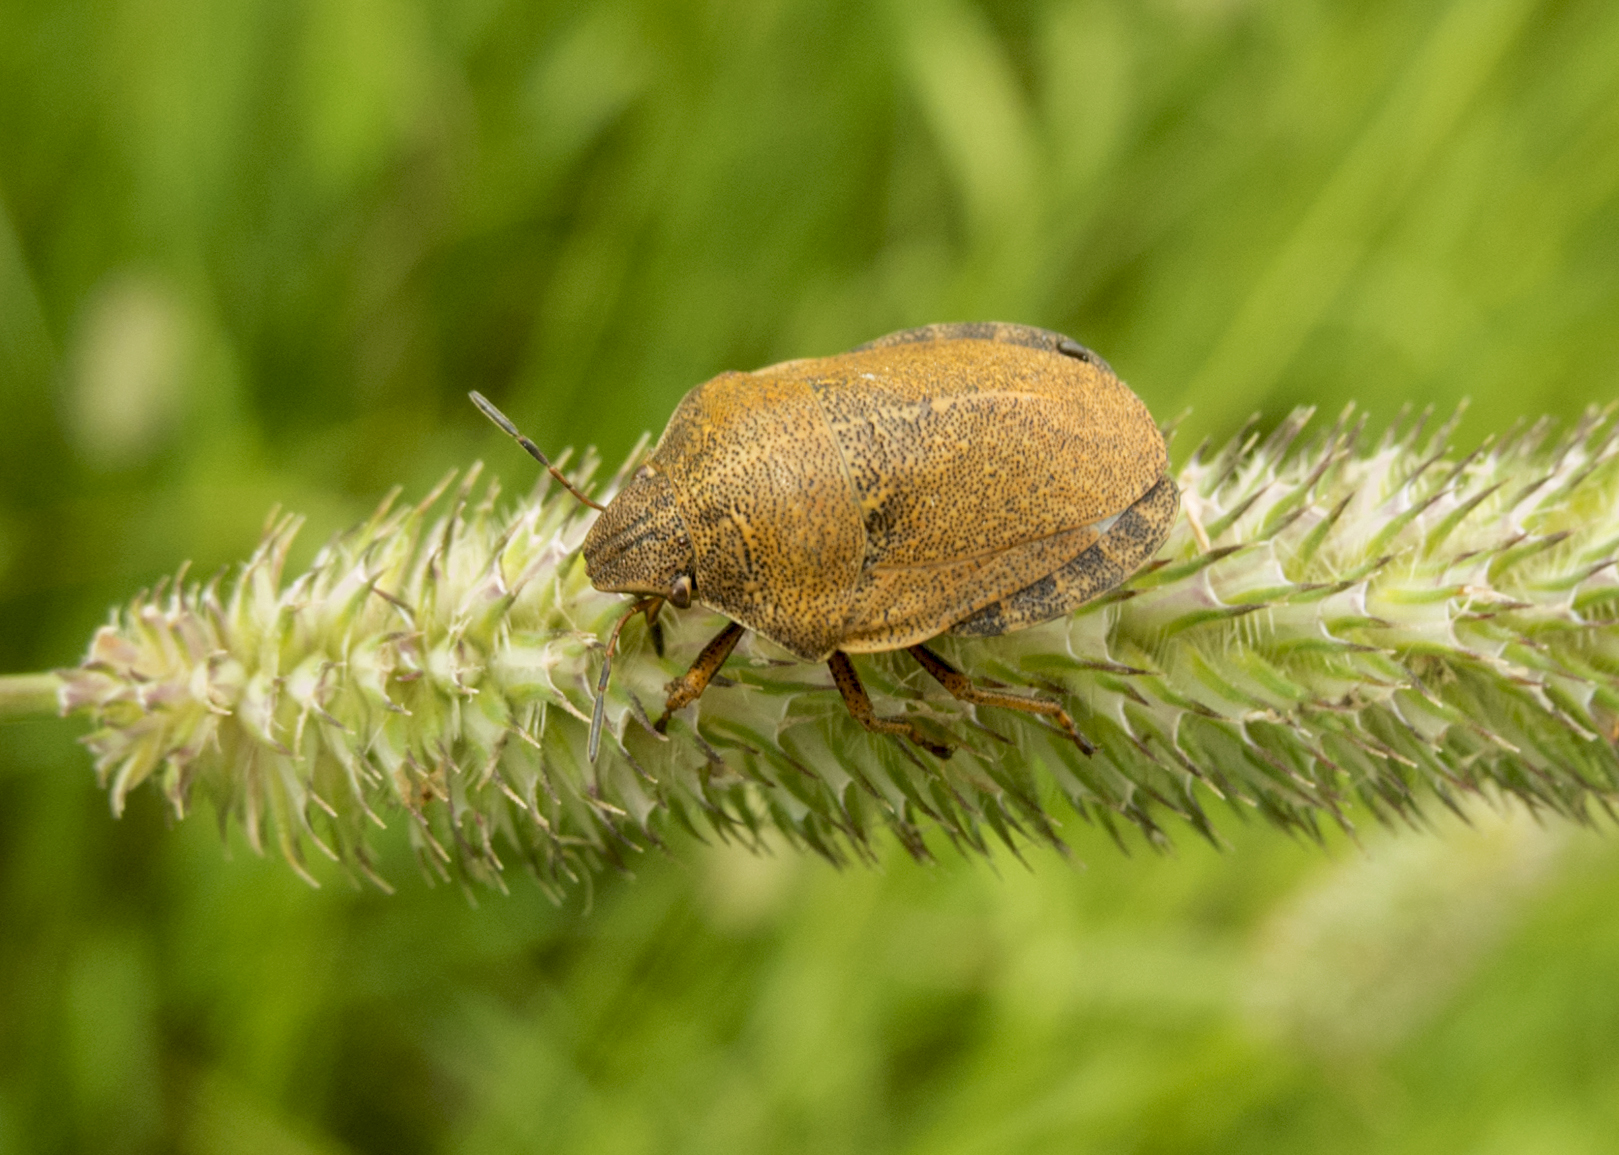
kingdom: Animalia
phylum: Arthropoda
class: Insecta
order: Hemiptera
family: Scutelleridae
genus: Eurygaster
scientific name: Eurygaster testudinaria
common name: Tortoise bug
